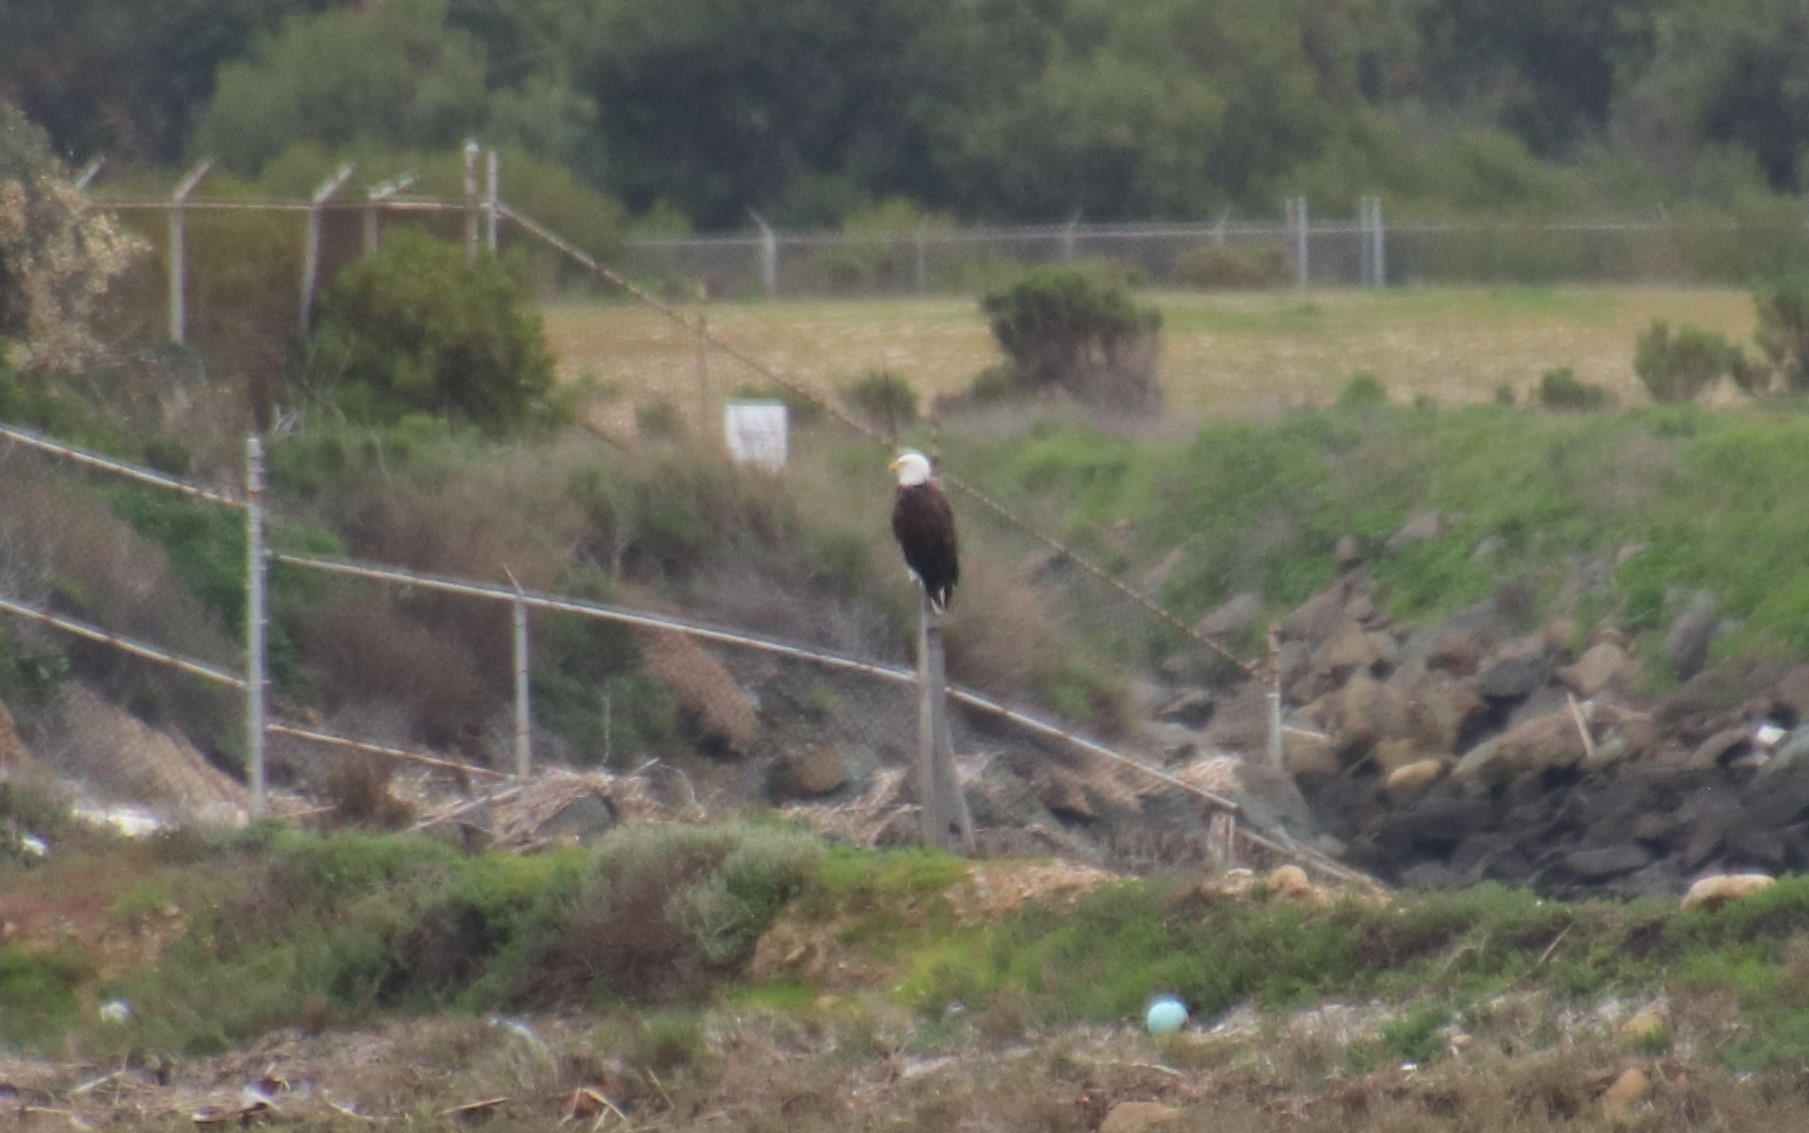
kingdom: Animalia
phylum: Chordata
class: Aves
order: Accipitriformes
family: Accipitridae
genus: Haliaeetus
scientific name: Haliaeetus leucocephalus
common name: Bald eagle
